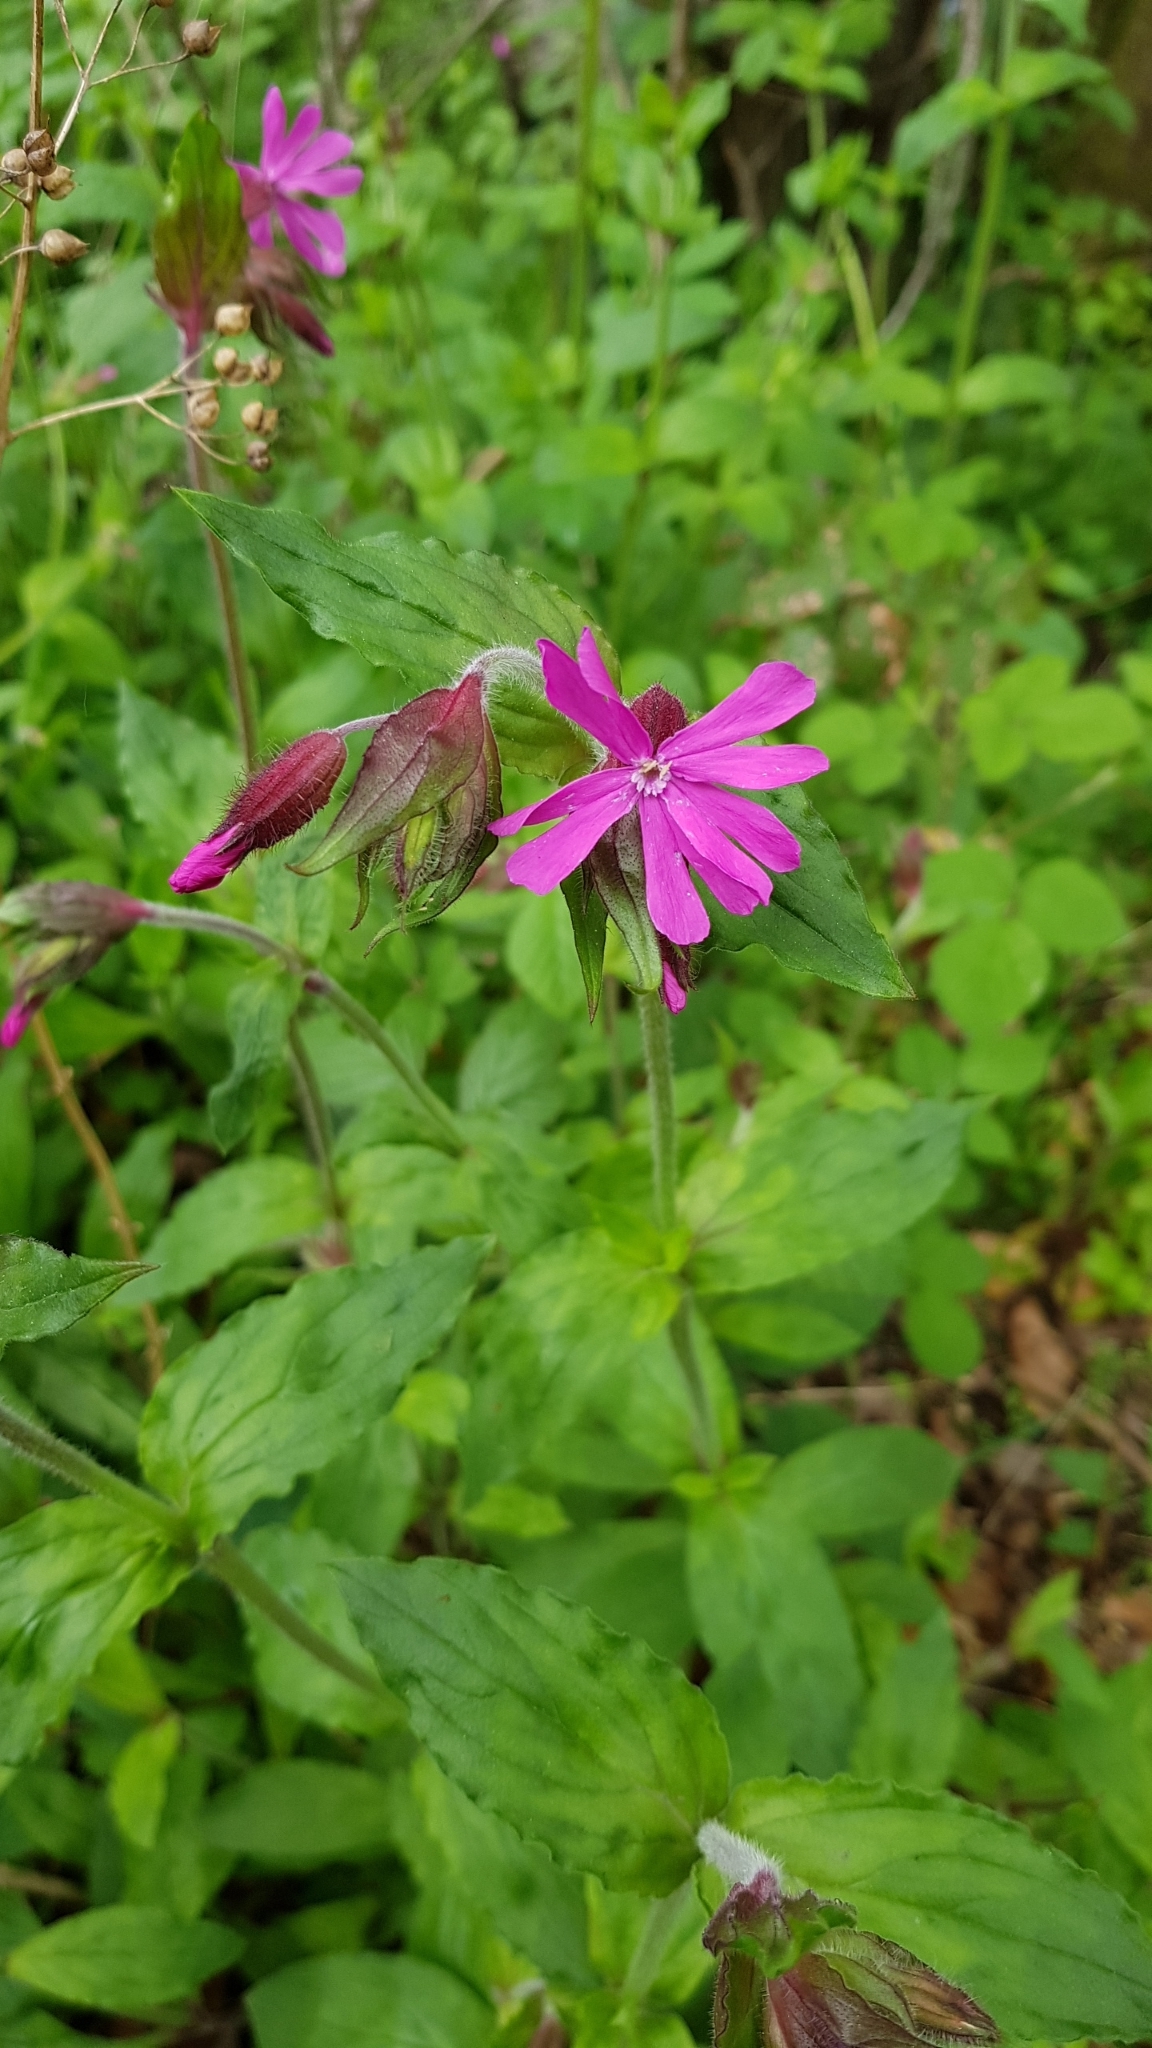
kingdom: Plantae
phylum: Tracheophyta
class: Magnoliopsida
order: Caryophyllales
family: Caryophyllaceae
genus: Silene
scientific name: Silene dioica
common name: Red campion
